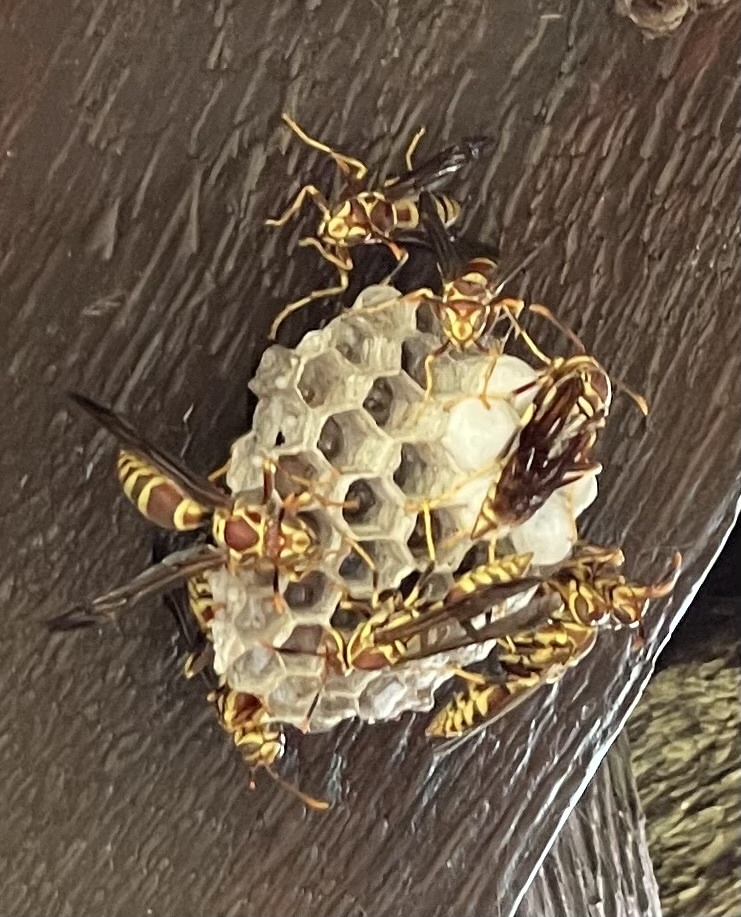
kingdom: Animalia
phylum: Arthropoda
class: Insecta
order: Hymenoptera
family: Eumenidae
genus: Polistes
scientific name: Polistes exclamans
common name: Paper wasp
